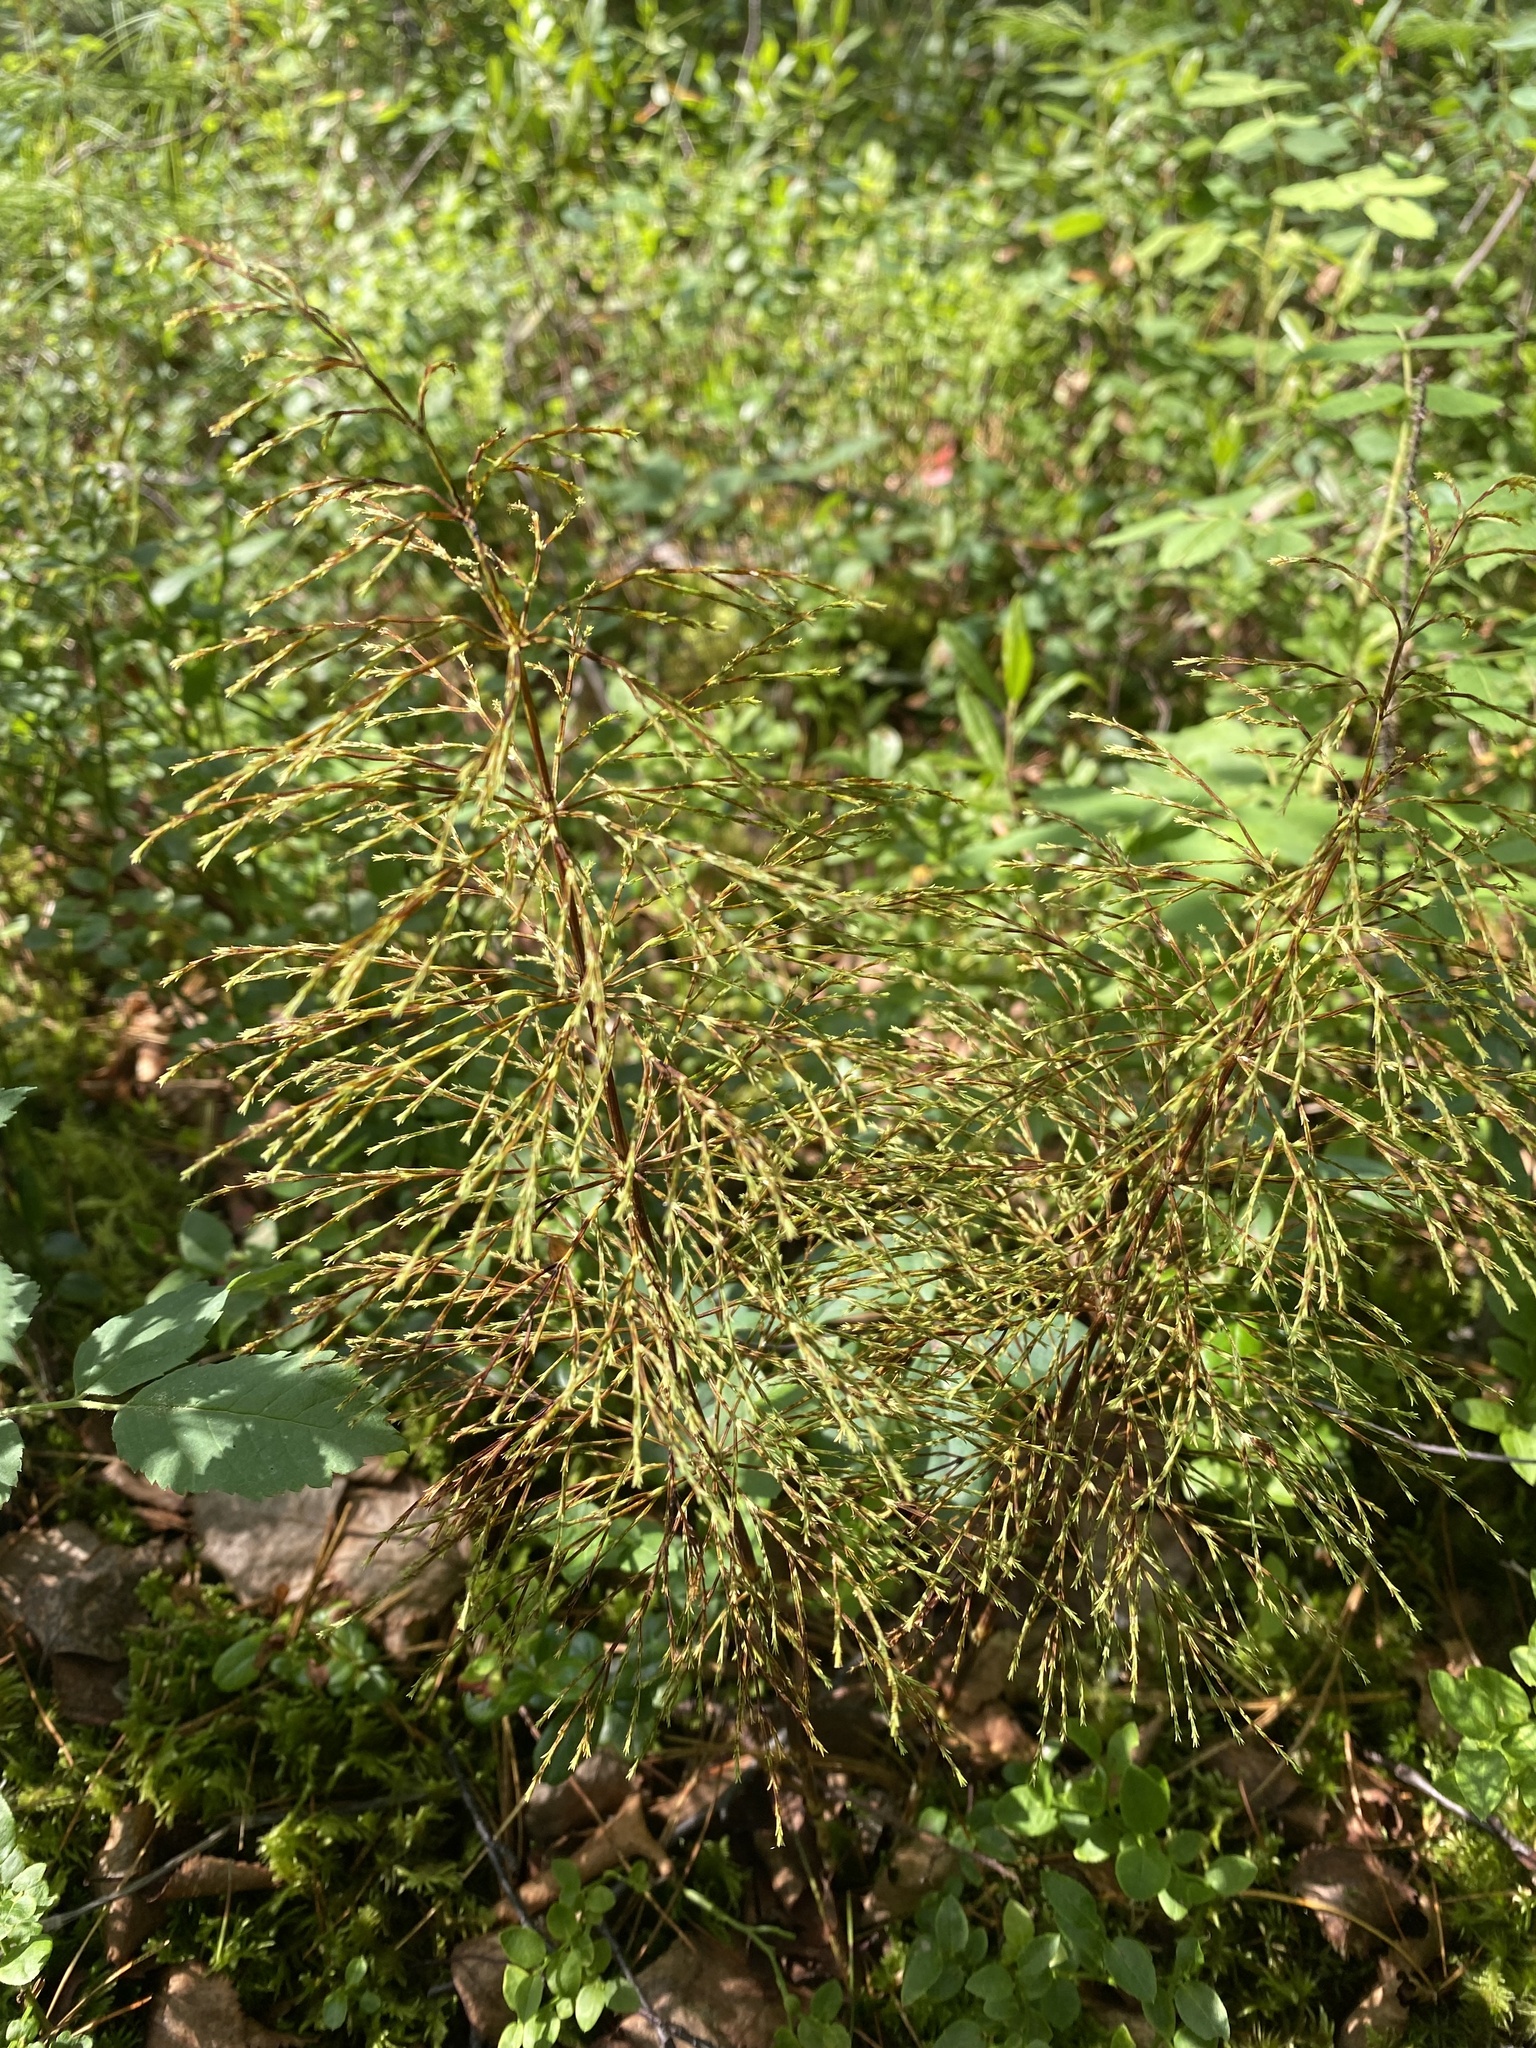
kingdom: Plantae
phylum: Tracheophyta
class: Polypodiopsida
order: Equisetales
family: Equisetaceae
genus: Equisetum
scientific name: Equisetum sylvaticum
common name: Wood horsetail
